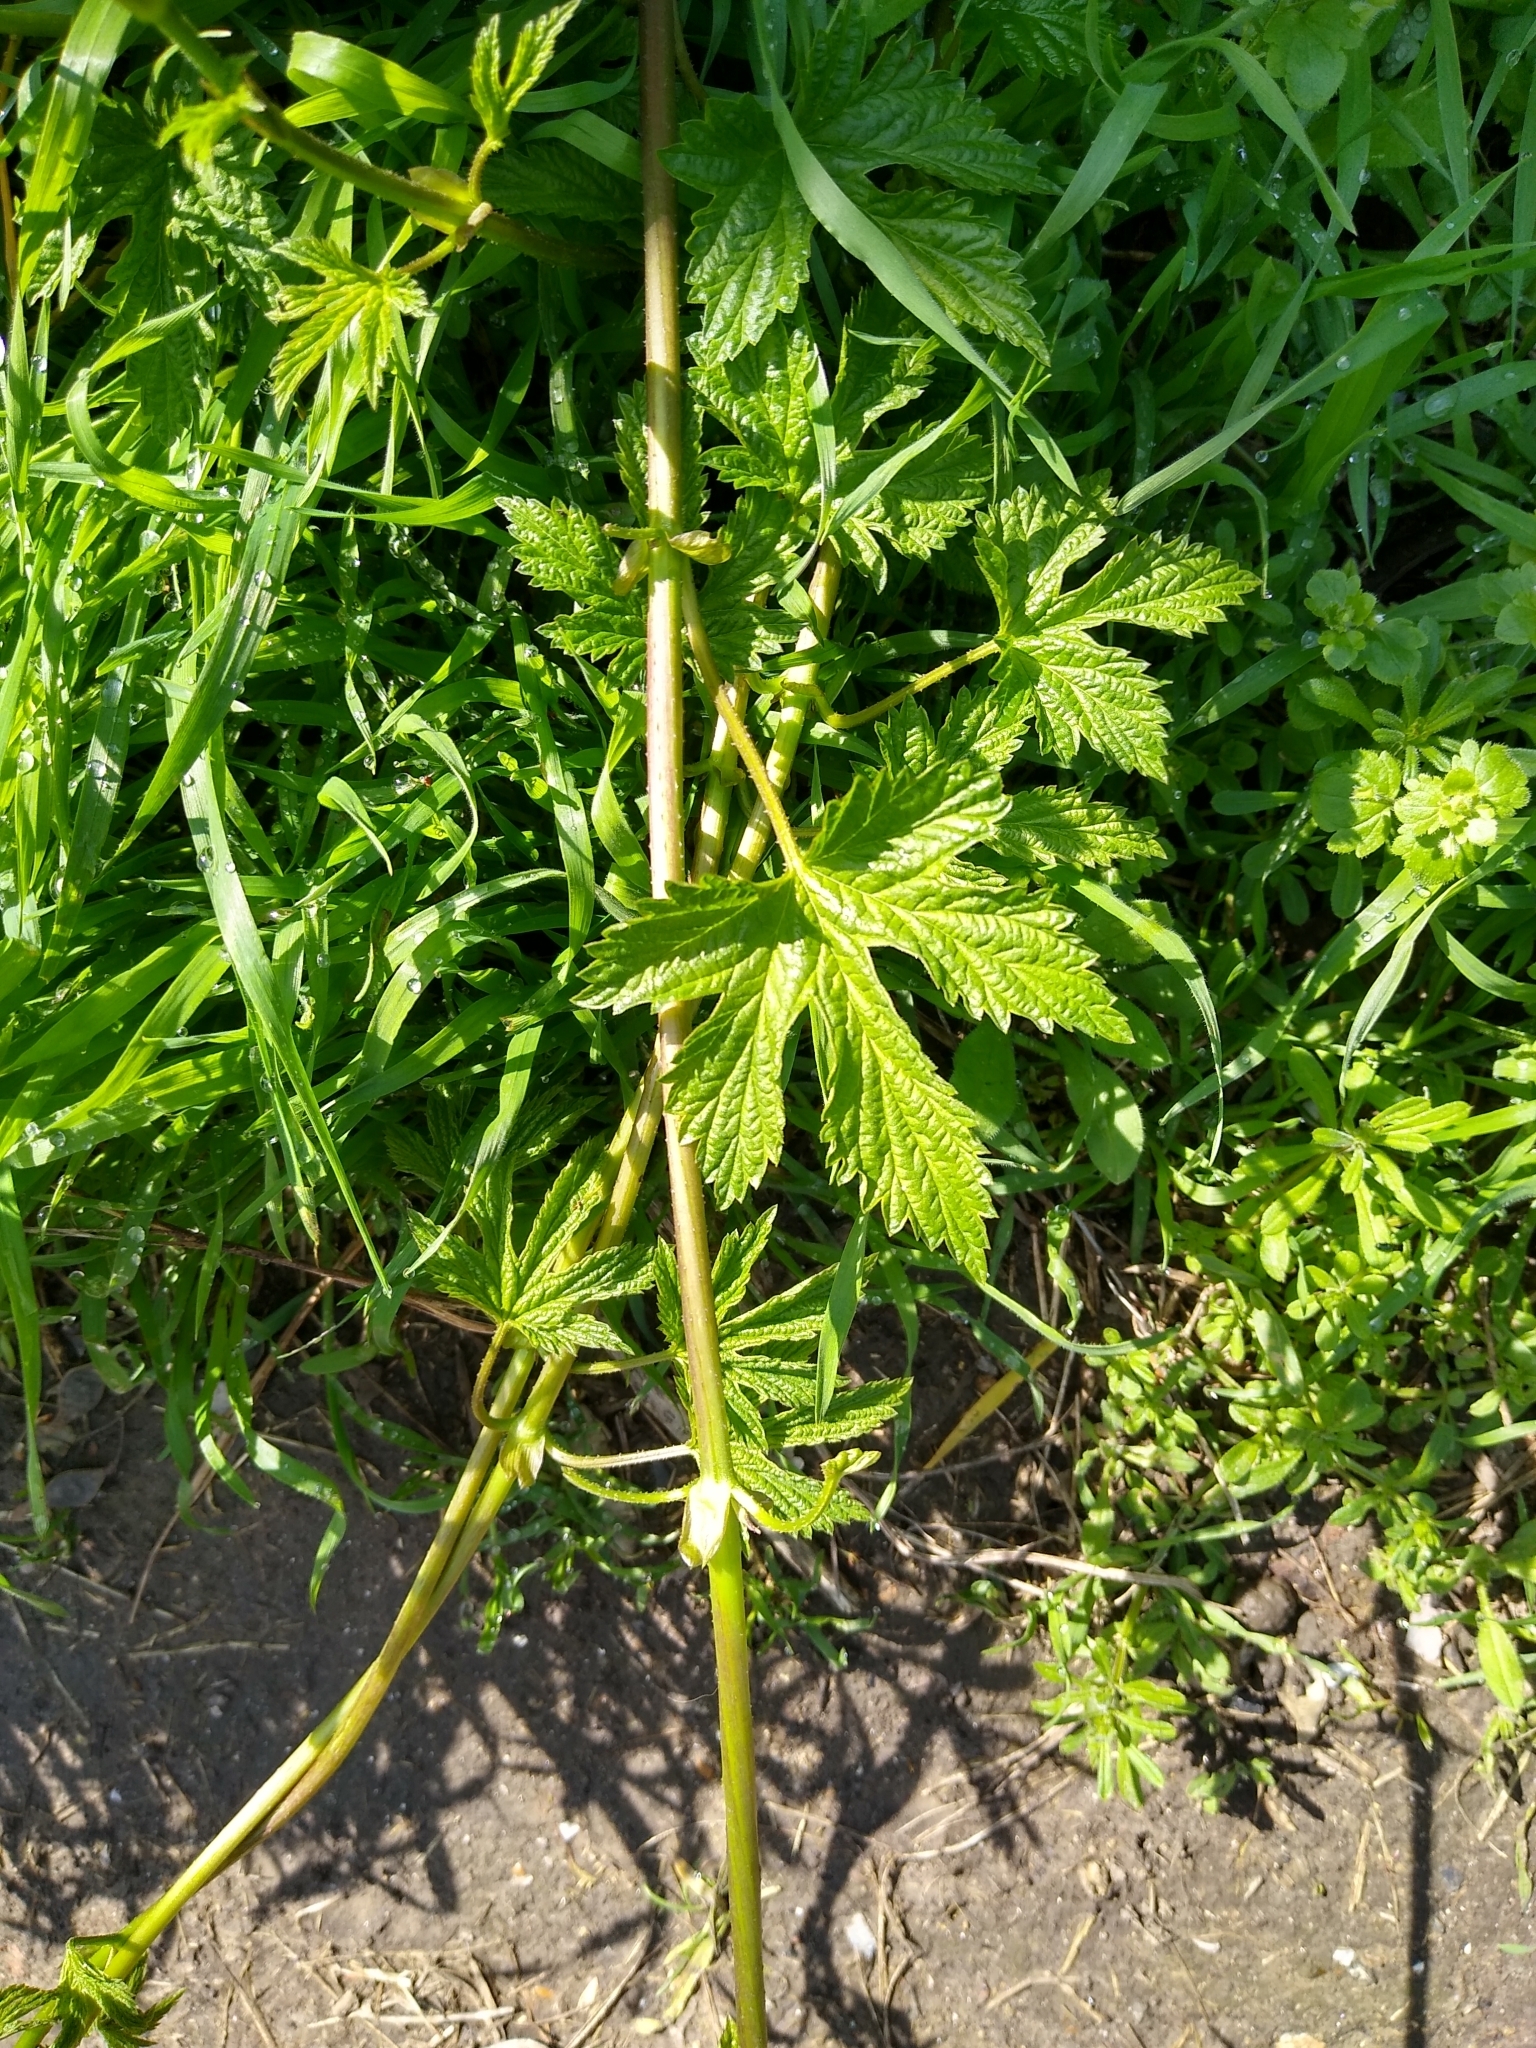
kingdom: Plantae
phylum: Tracheophyta
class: Magnoliopsida
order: Rosales
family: Cannabaceae
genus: Humulus
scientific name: Humulus lupulus
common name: Hop
